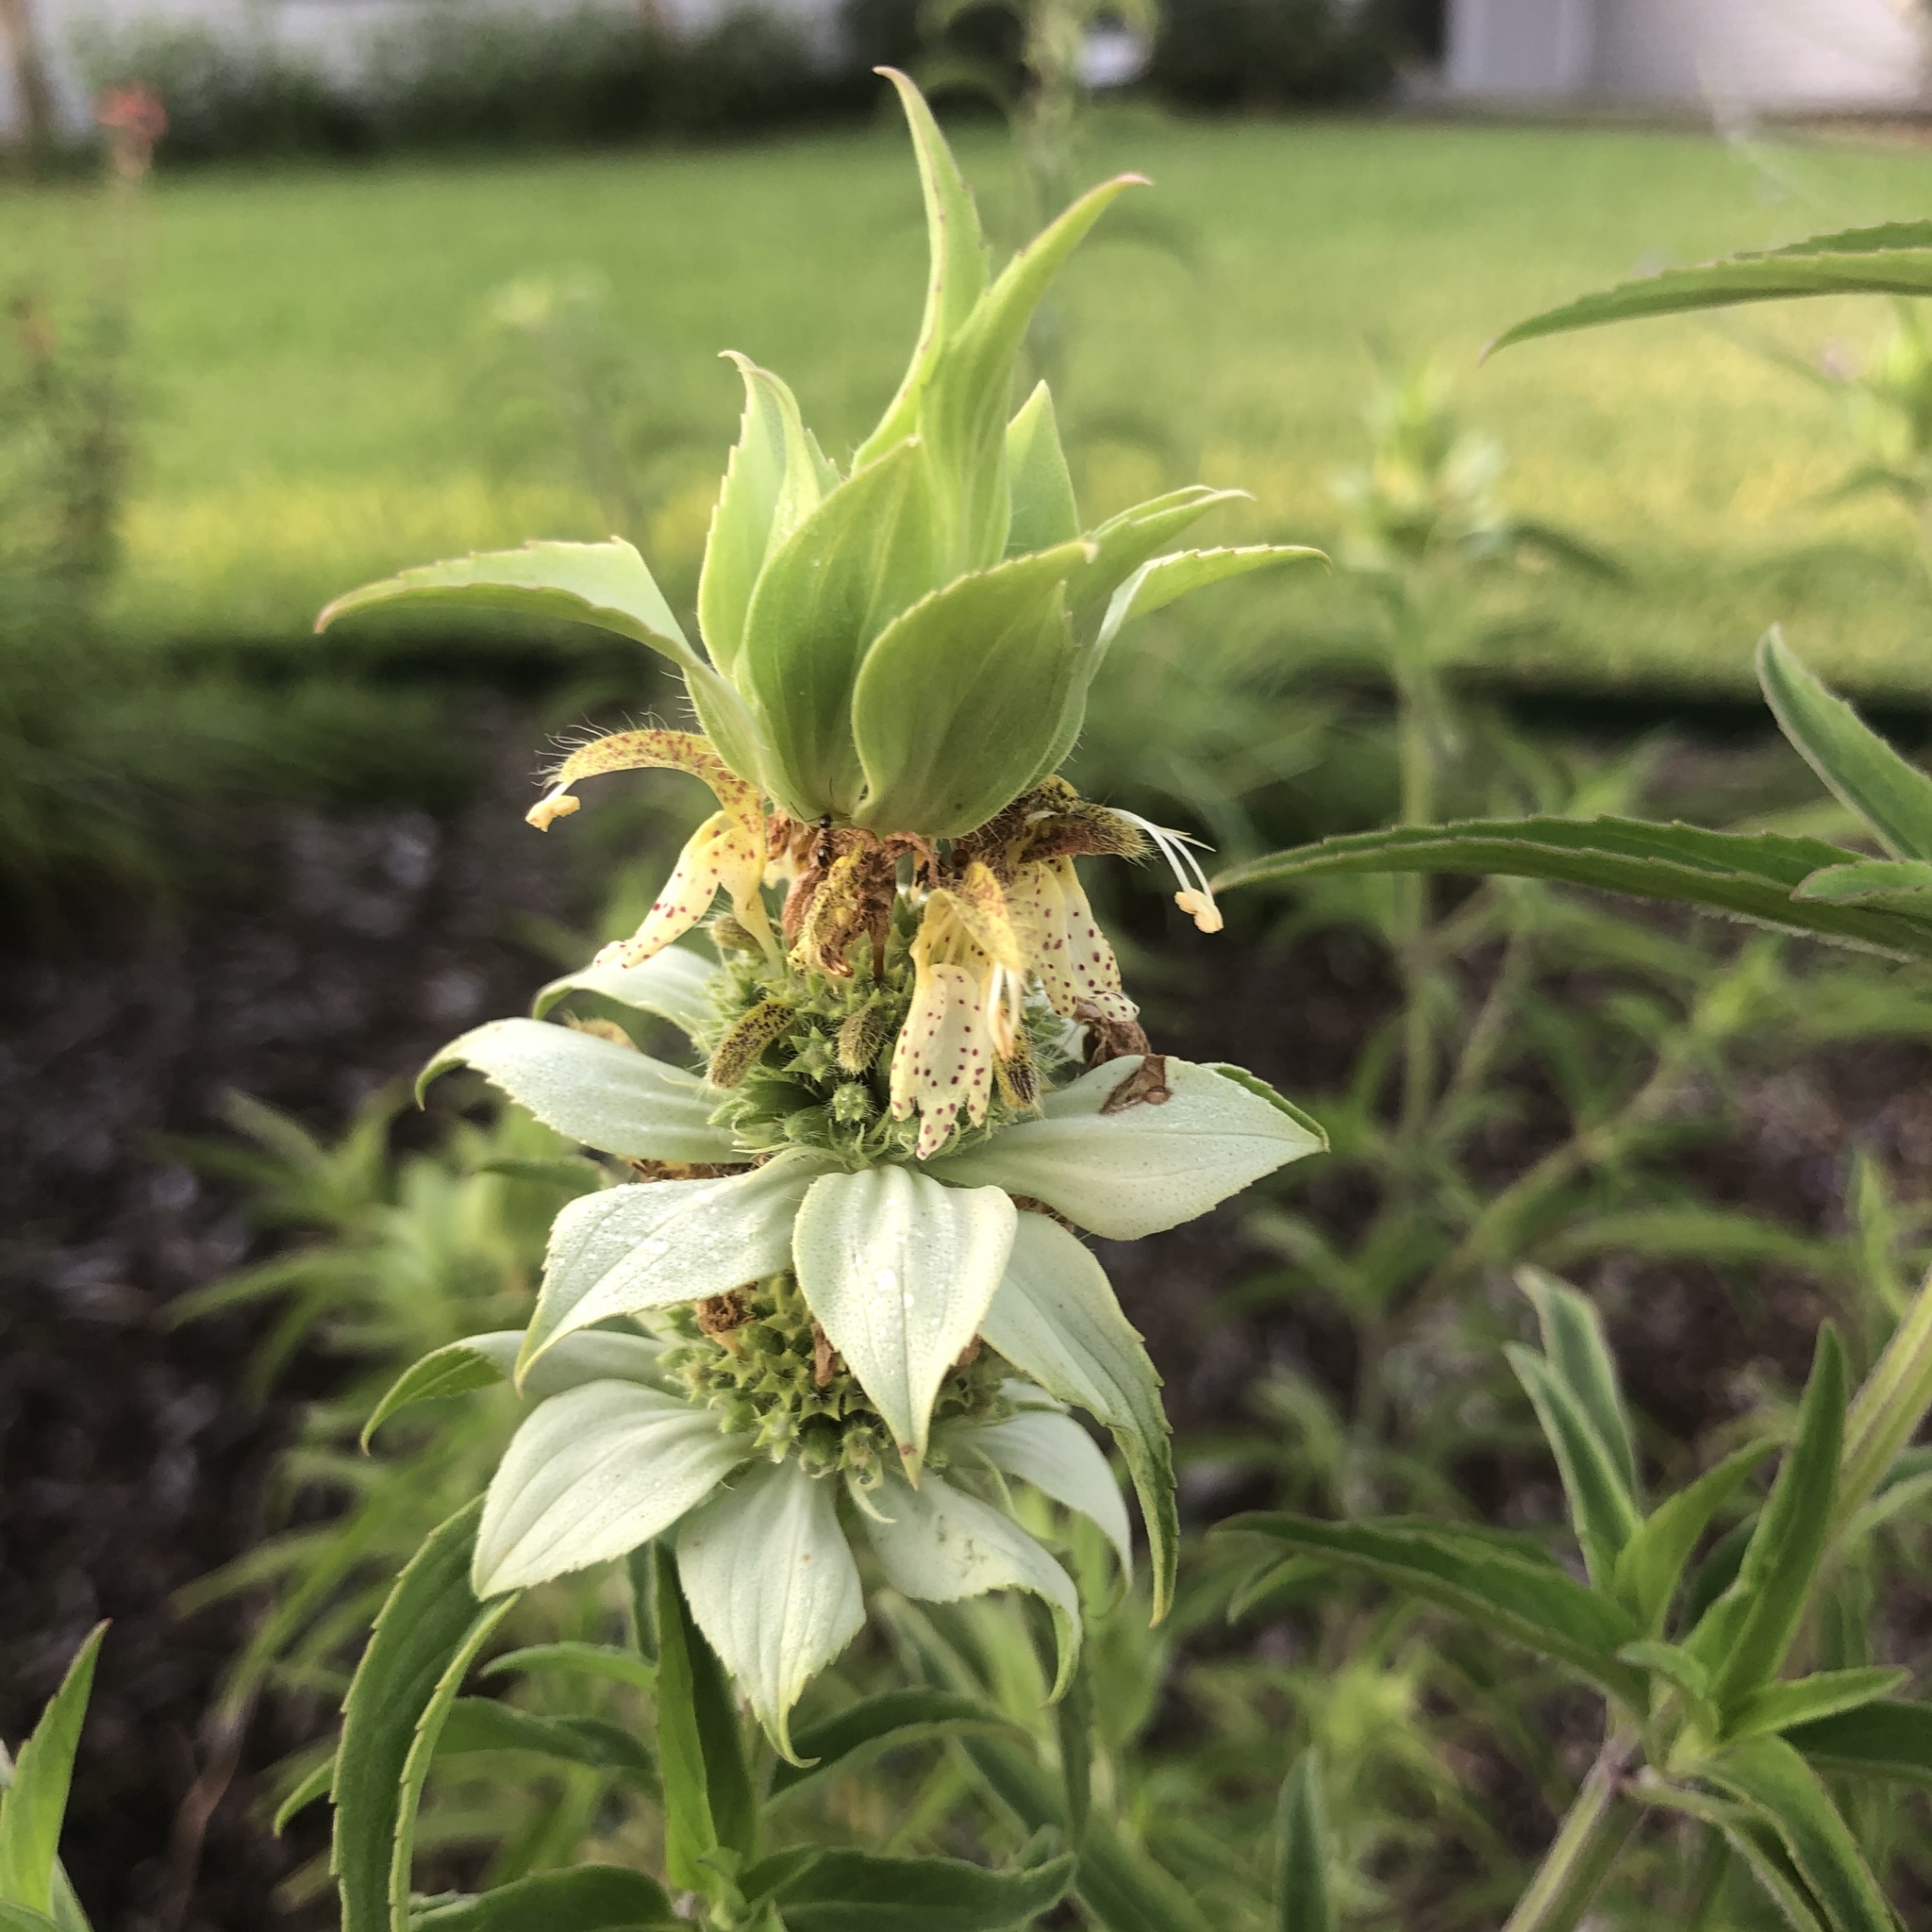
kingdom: Plantae
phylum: Tracheophyta
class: Magnoliopsida
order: Lamiales
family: Lamiaceae
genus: Monarda
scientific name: Monarda punctata
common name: Dotted monarda
